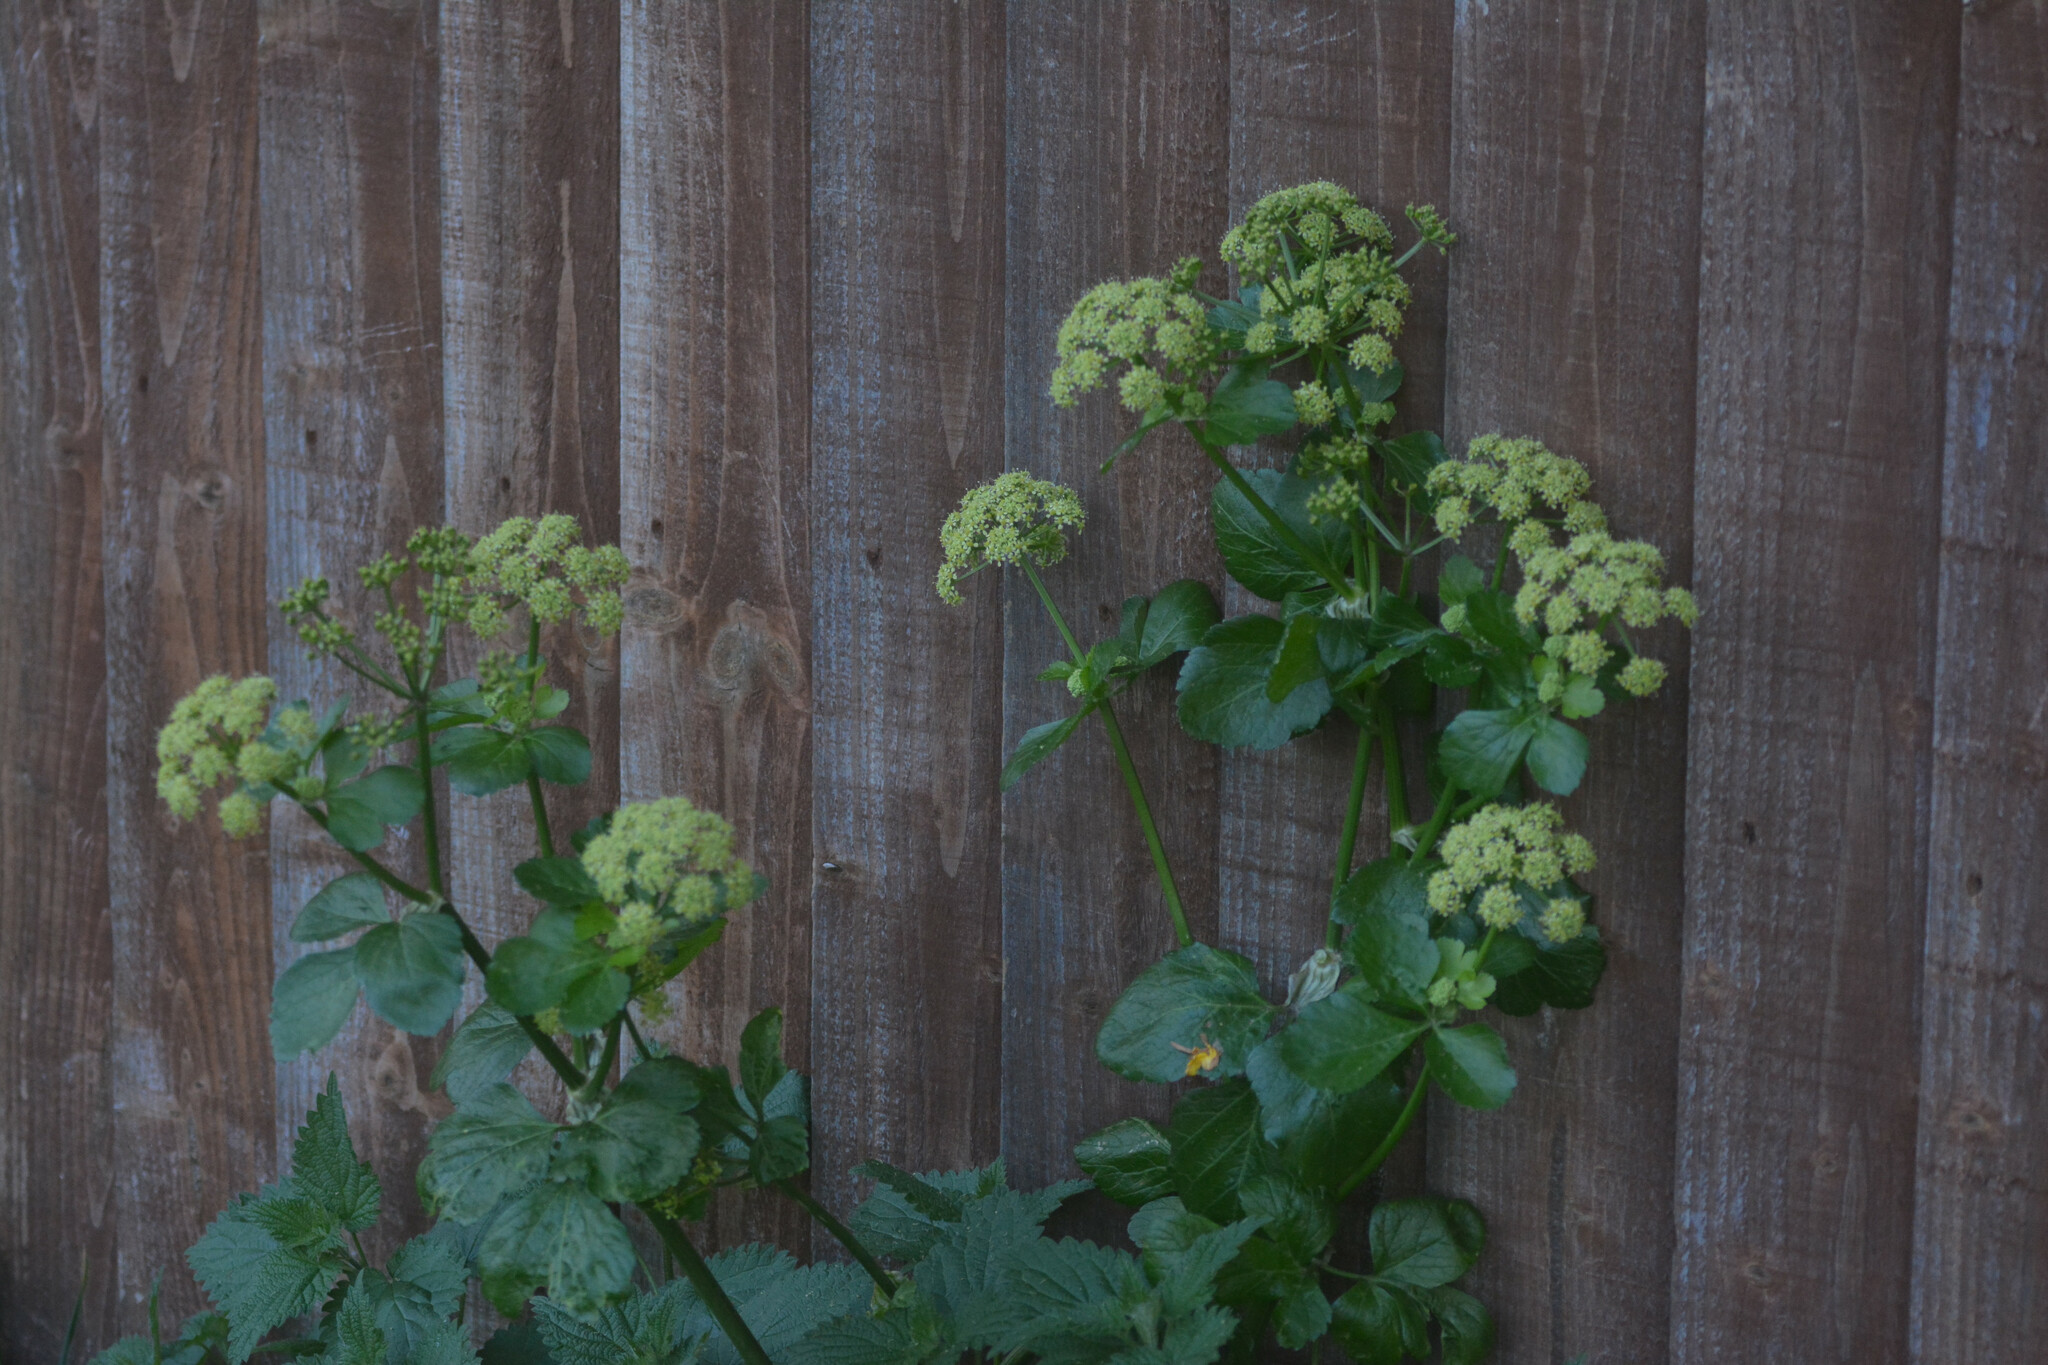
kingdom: Plantae
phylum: Tracheophyta
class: Magnoliopsida
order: Apiales
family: Apiaceae
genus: Smyrnium
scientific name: Smyrnium olusatrum
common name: Alexanders
